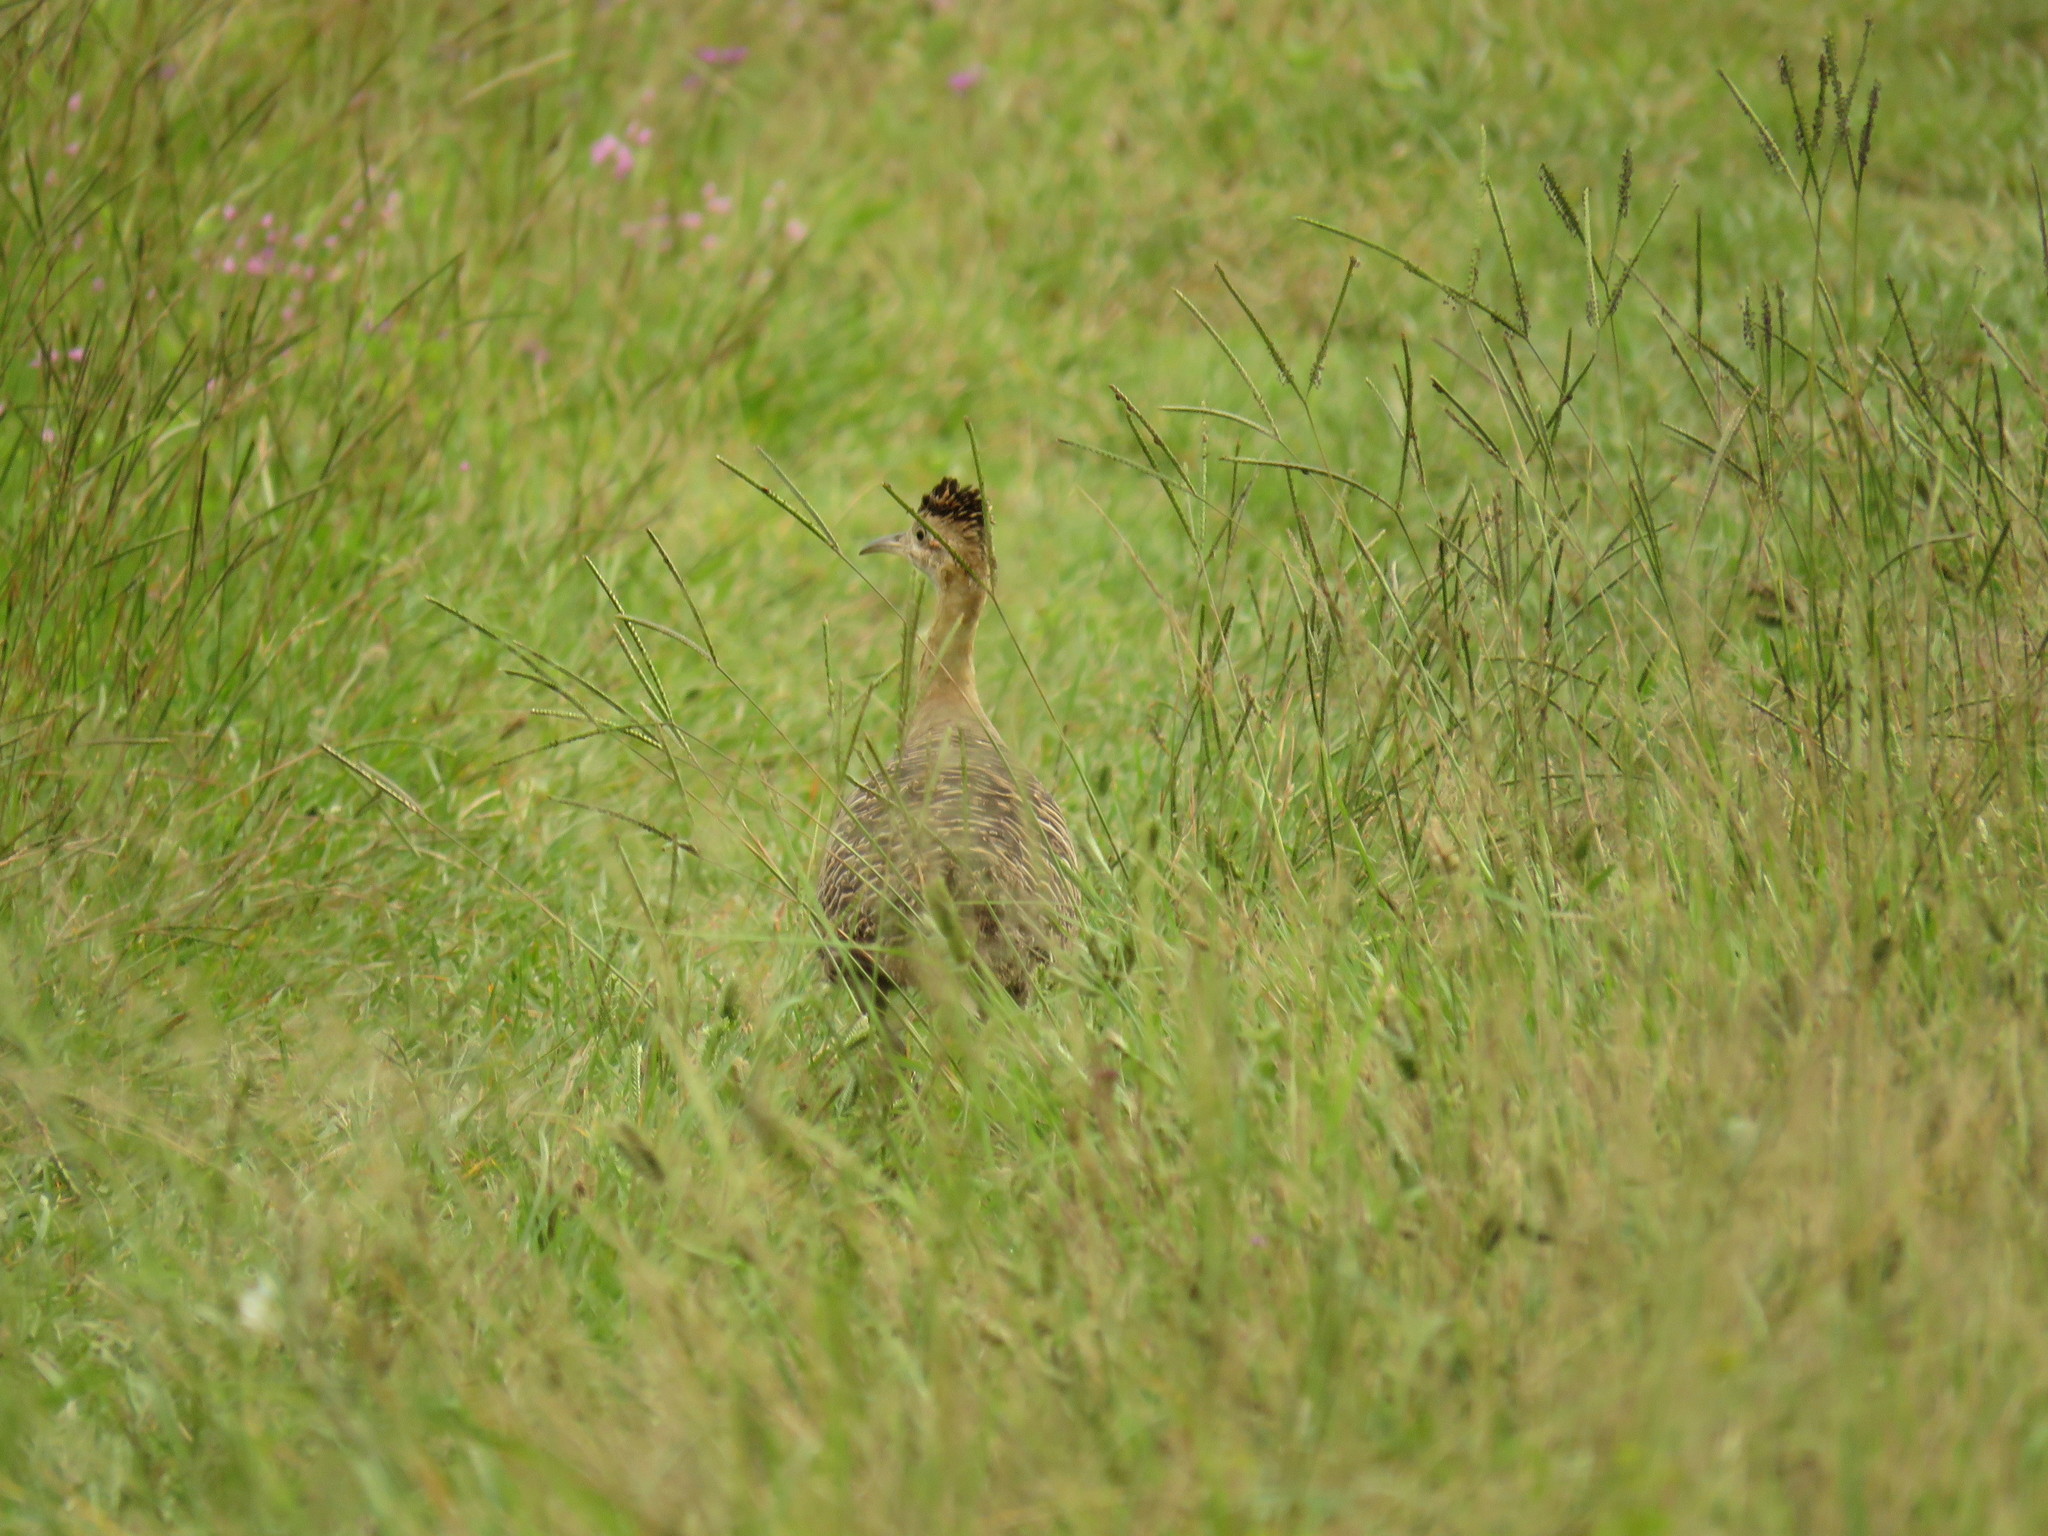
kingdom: Animalia
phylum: Chordata
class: Aves
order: Tinamiformes
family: Tinamidae
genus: Rhynchotus
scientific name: Rhynchotus rufescens
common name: Red-winged tinamou
